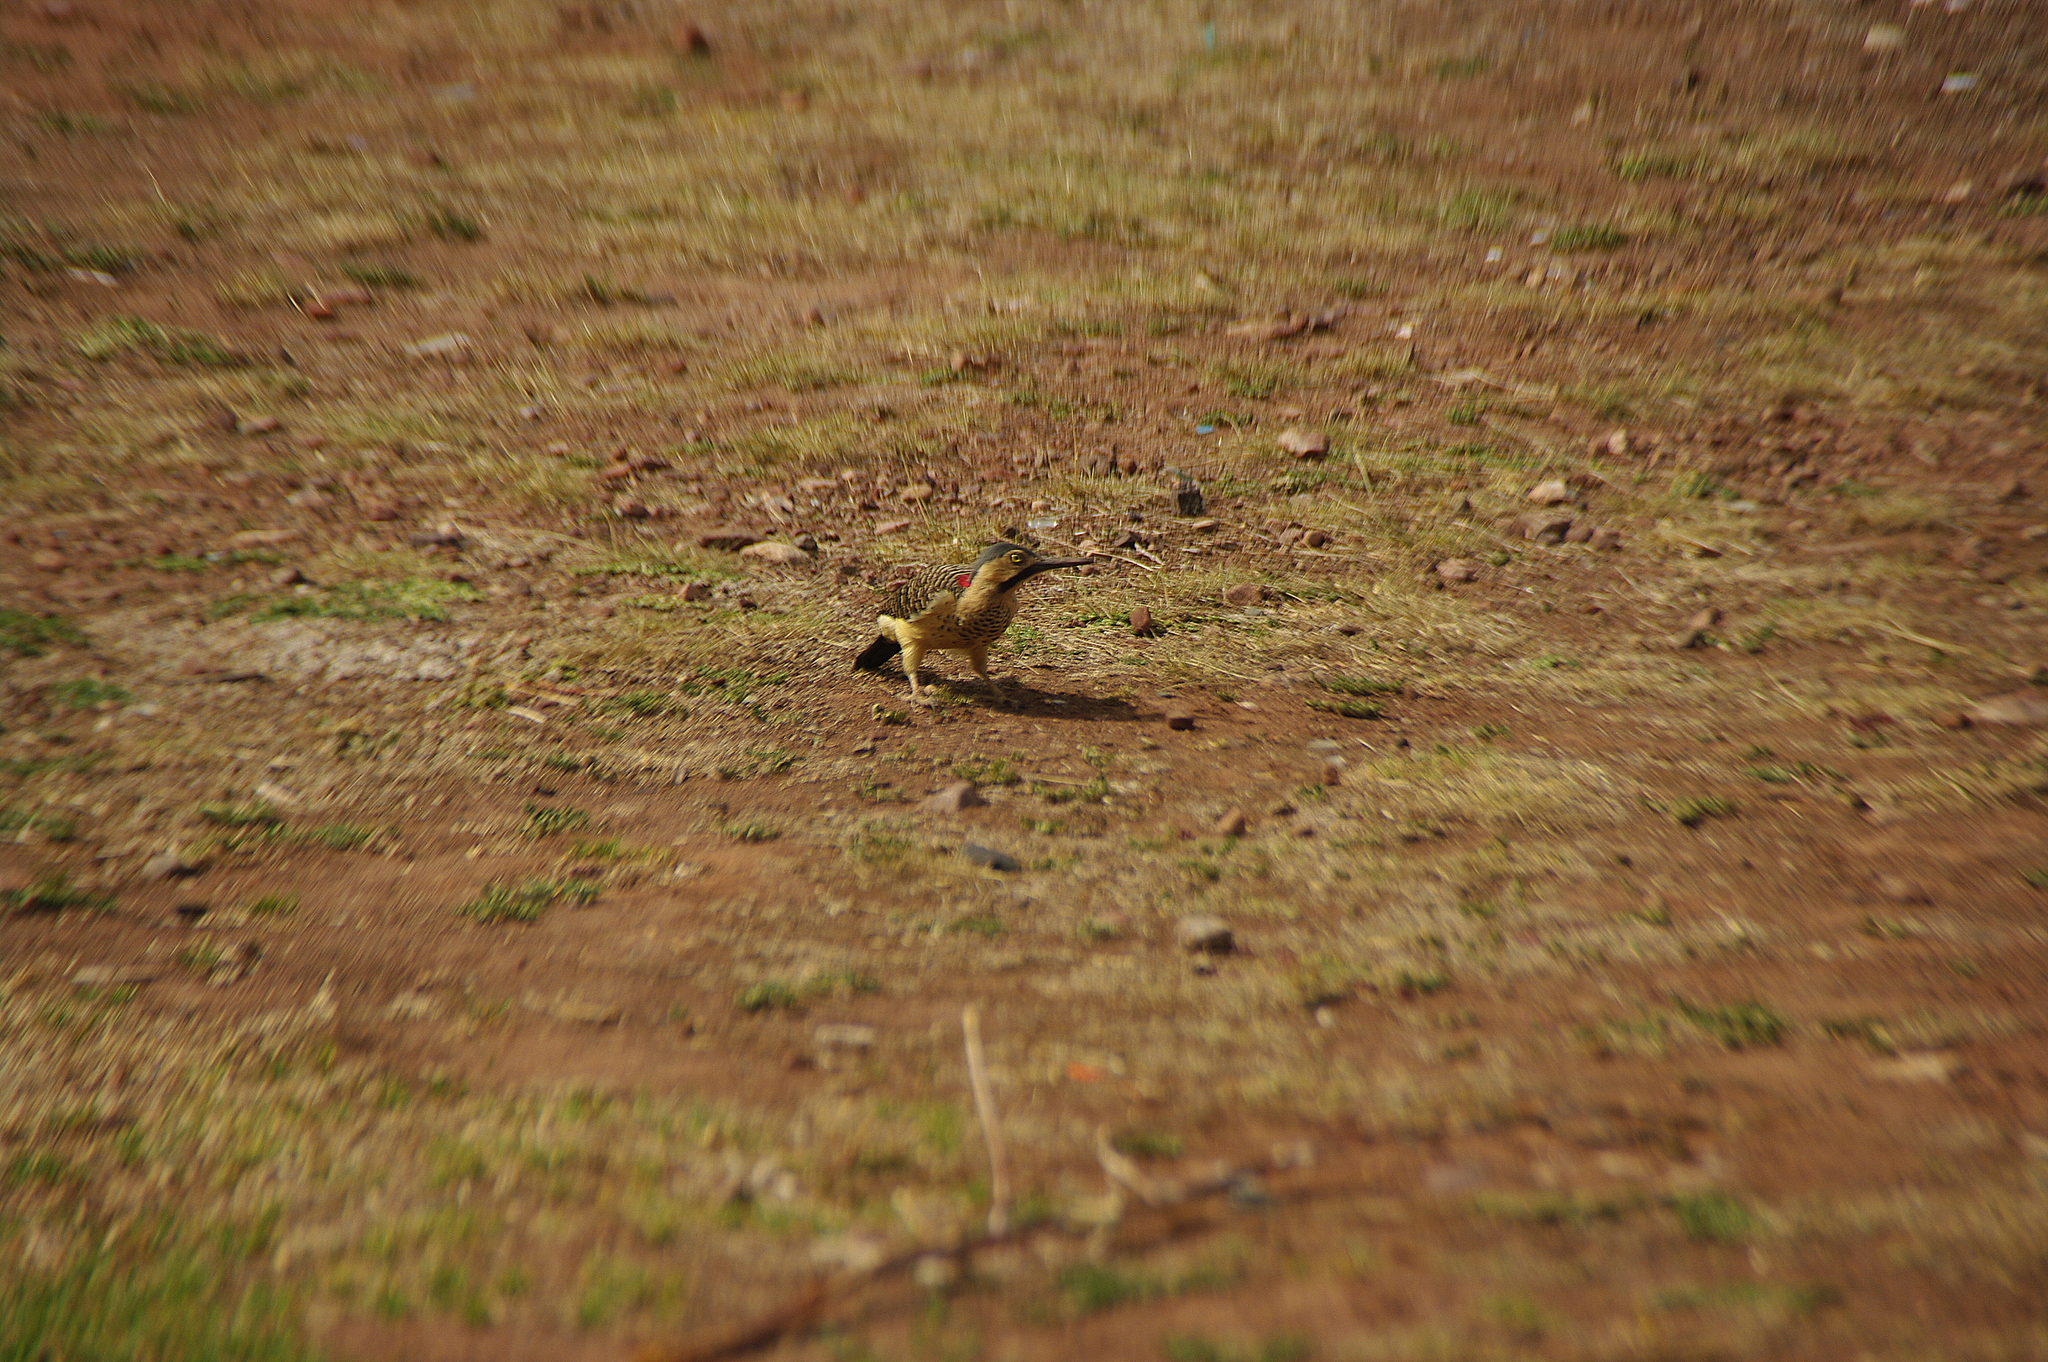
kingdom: Animalia
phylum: Chordata
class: Aves
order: Piciformes
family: Picidae
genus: Colaptes
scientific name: Colaptes rupicola
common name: Andean flicker
